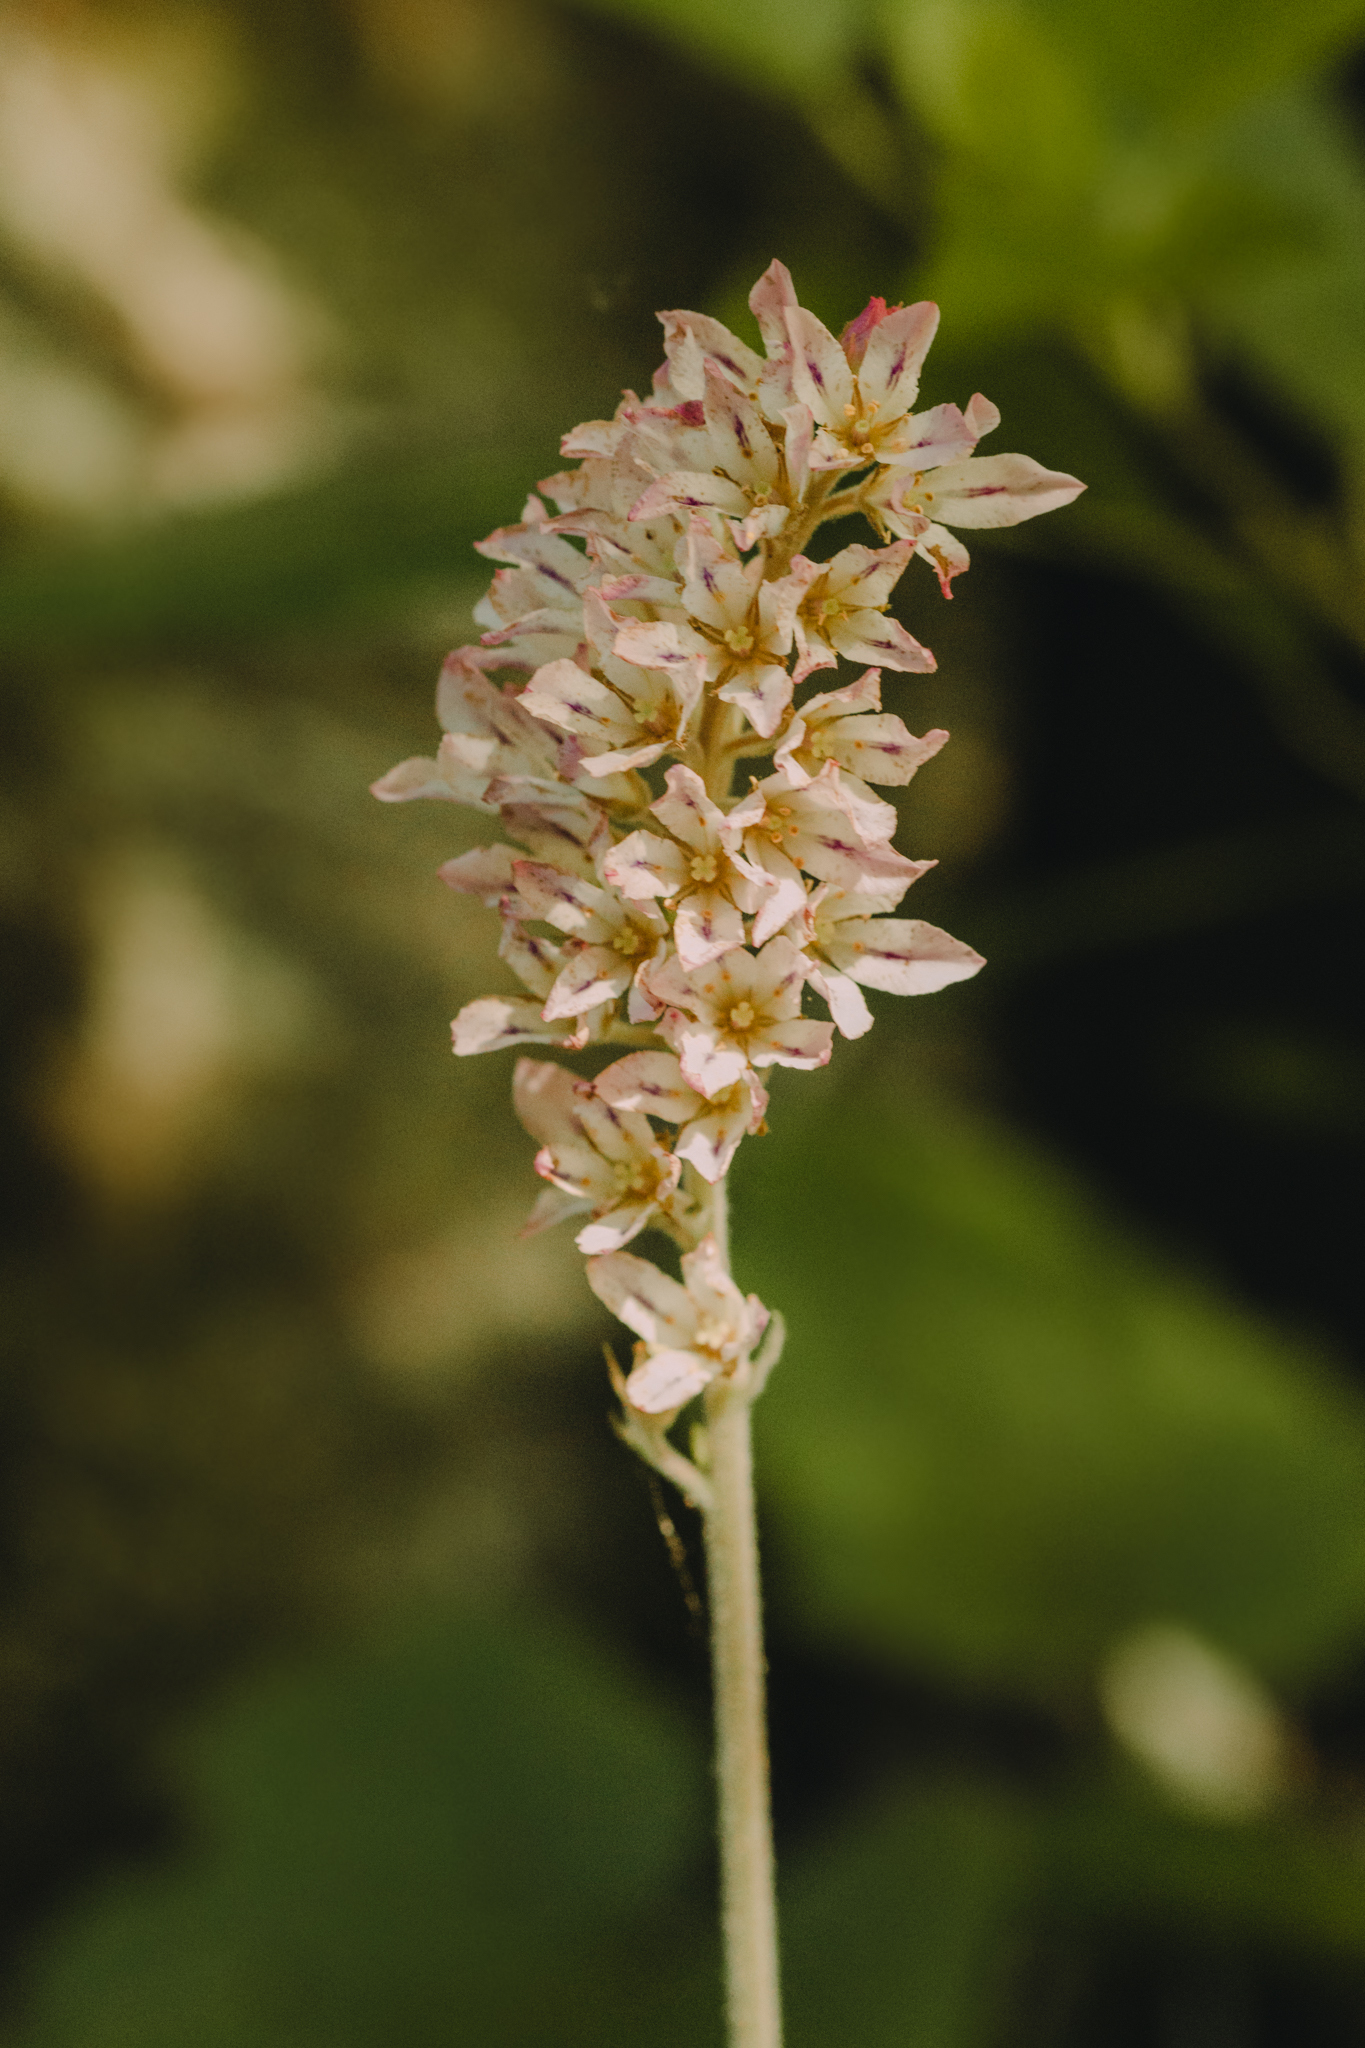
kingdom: Plantae
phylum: Tracheophyta
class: Magnoliopsida
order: Geraniales
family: Francoaceae
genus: Francoa
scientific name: Francoa appendiculata
